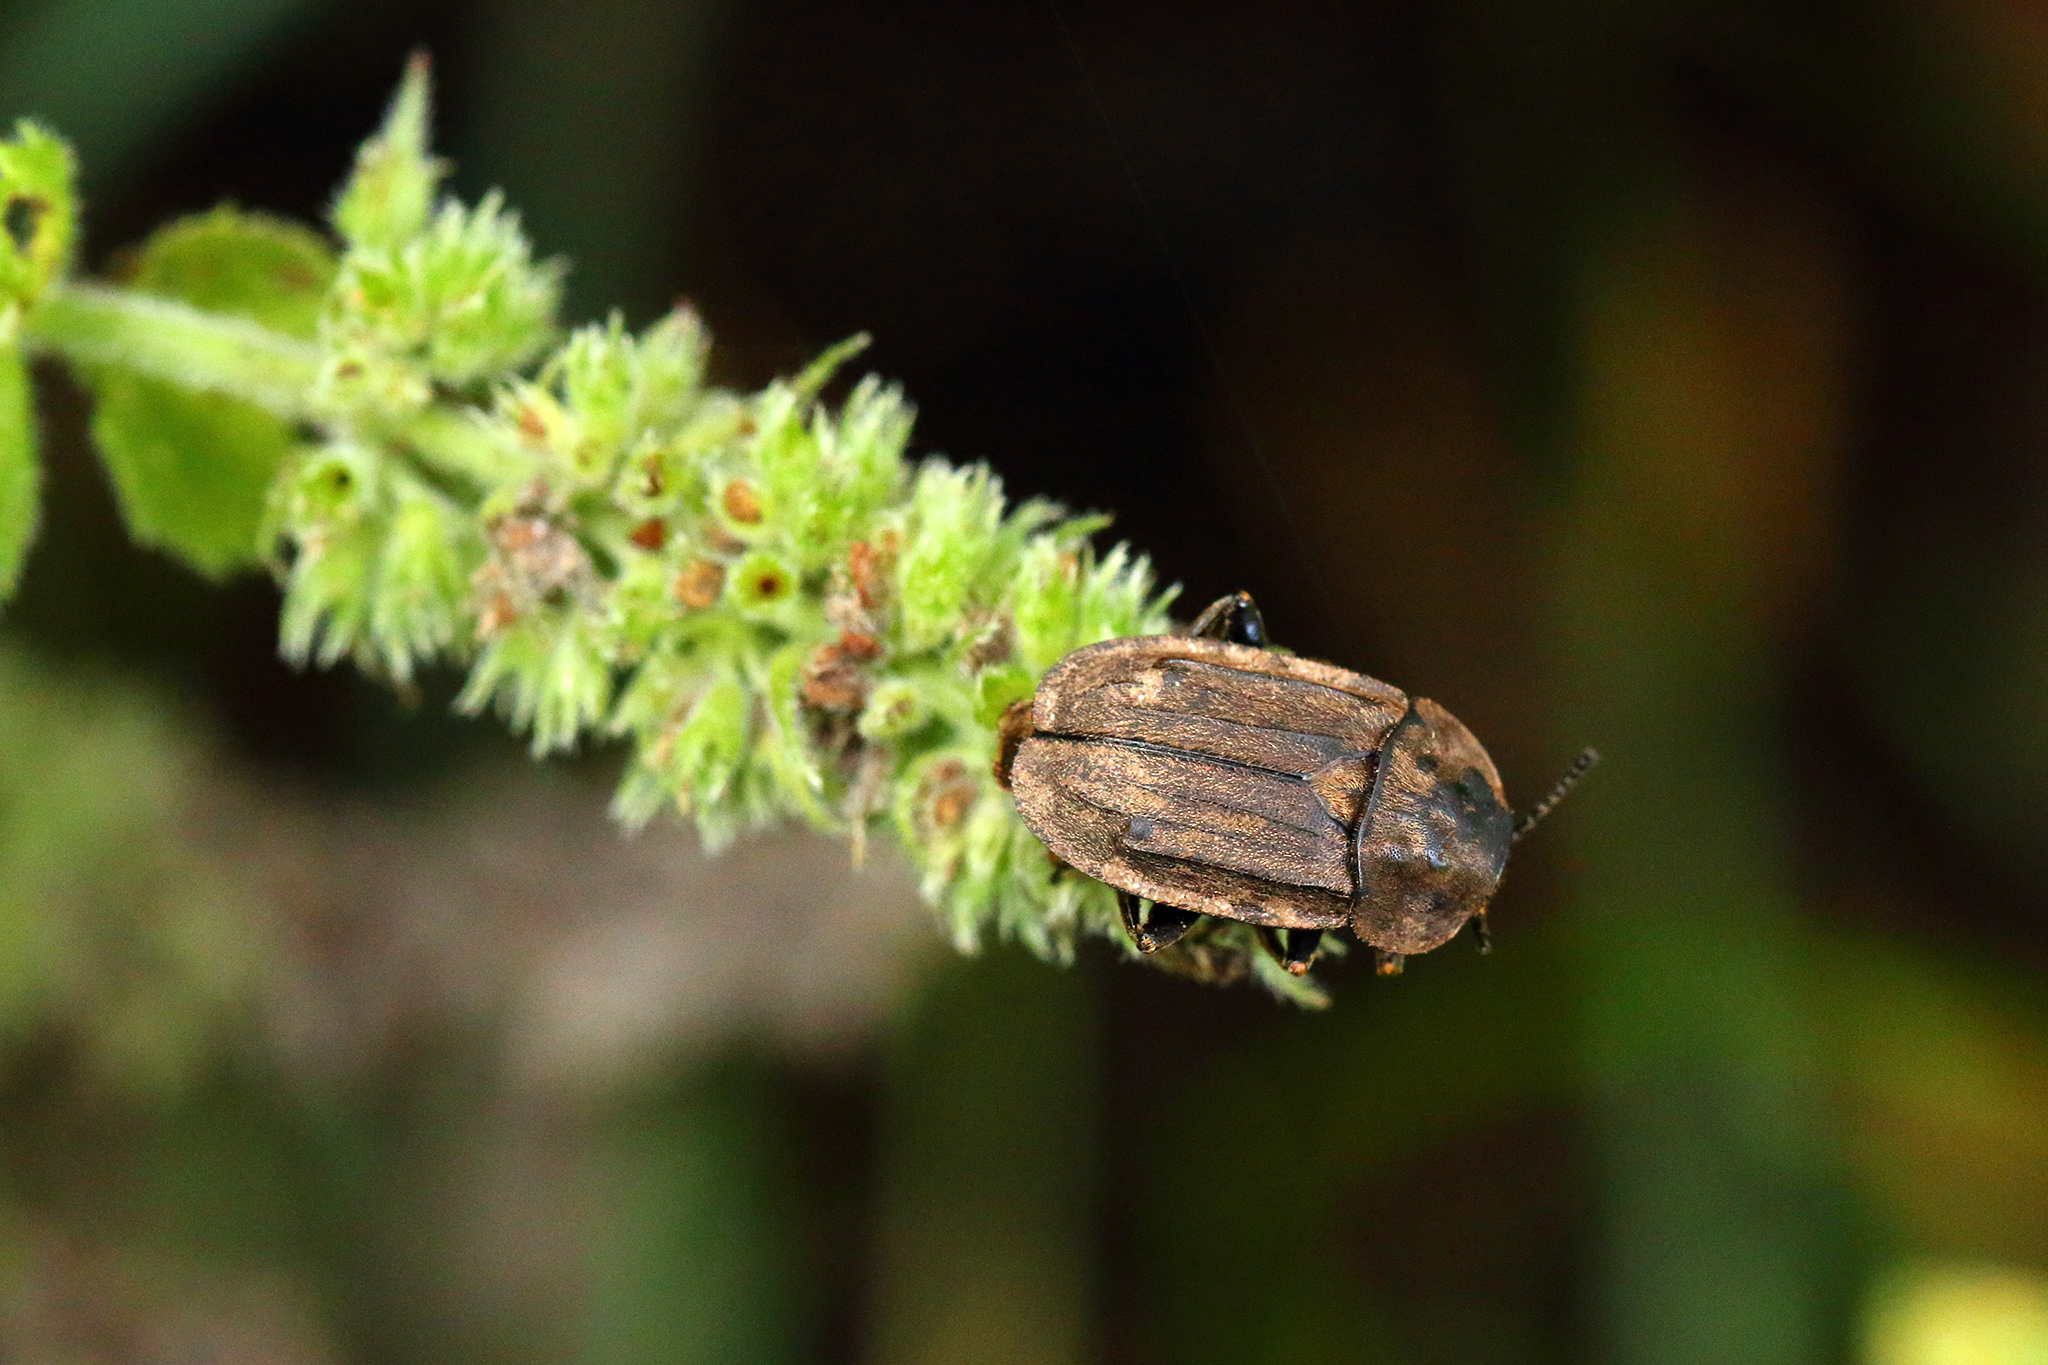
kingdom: Animalia
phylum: Arthropoda
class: Insecta
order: Coleoptera
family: Staphylinidae
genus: Aclypea
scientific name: Aclypea opaca
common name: Silphid beetle
